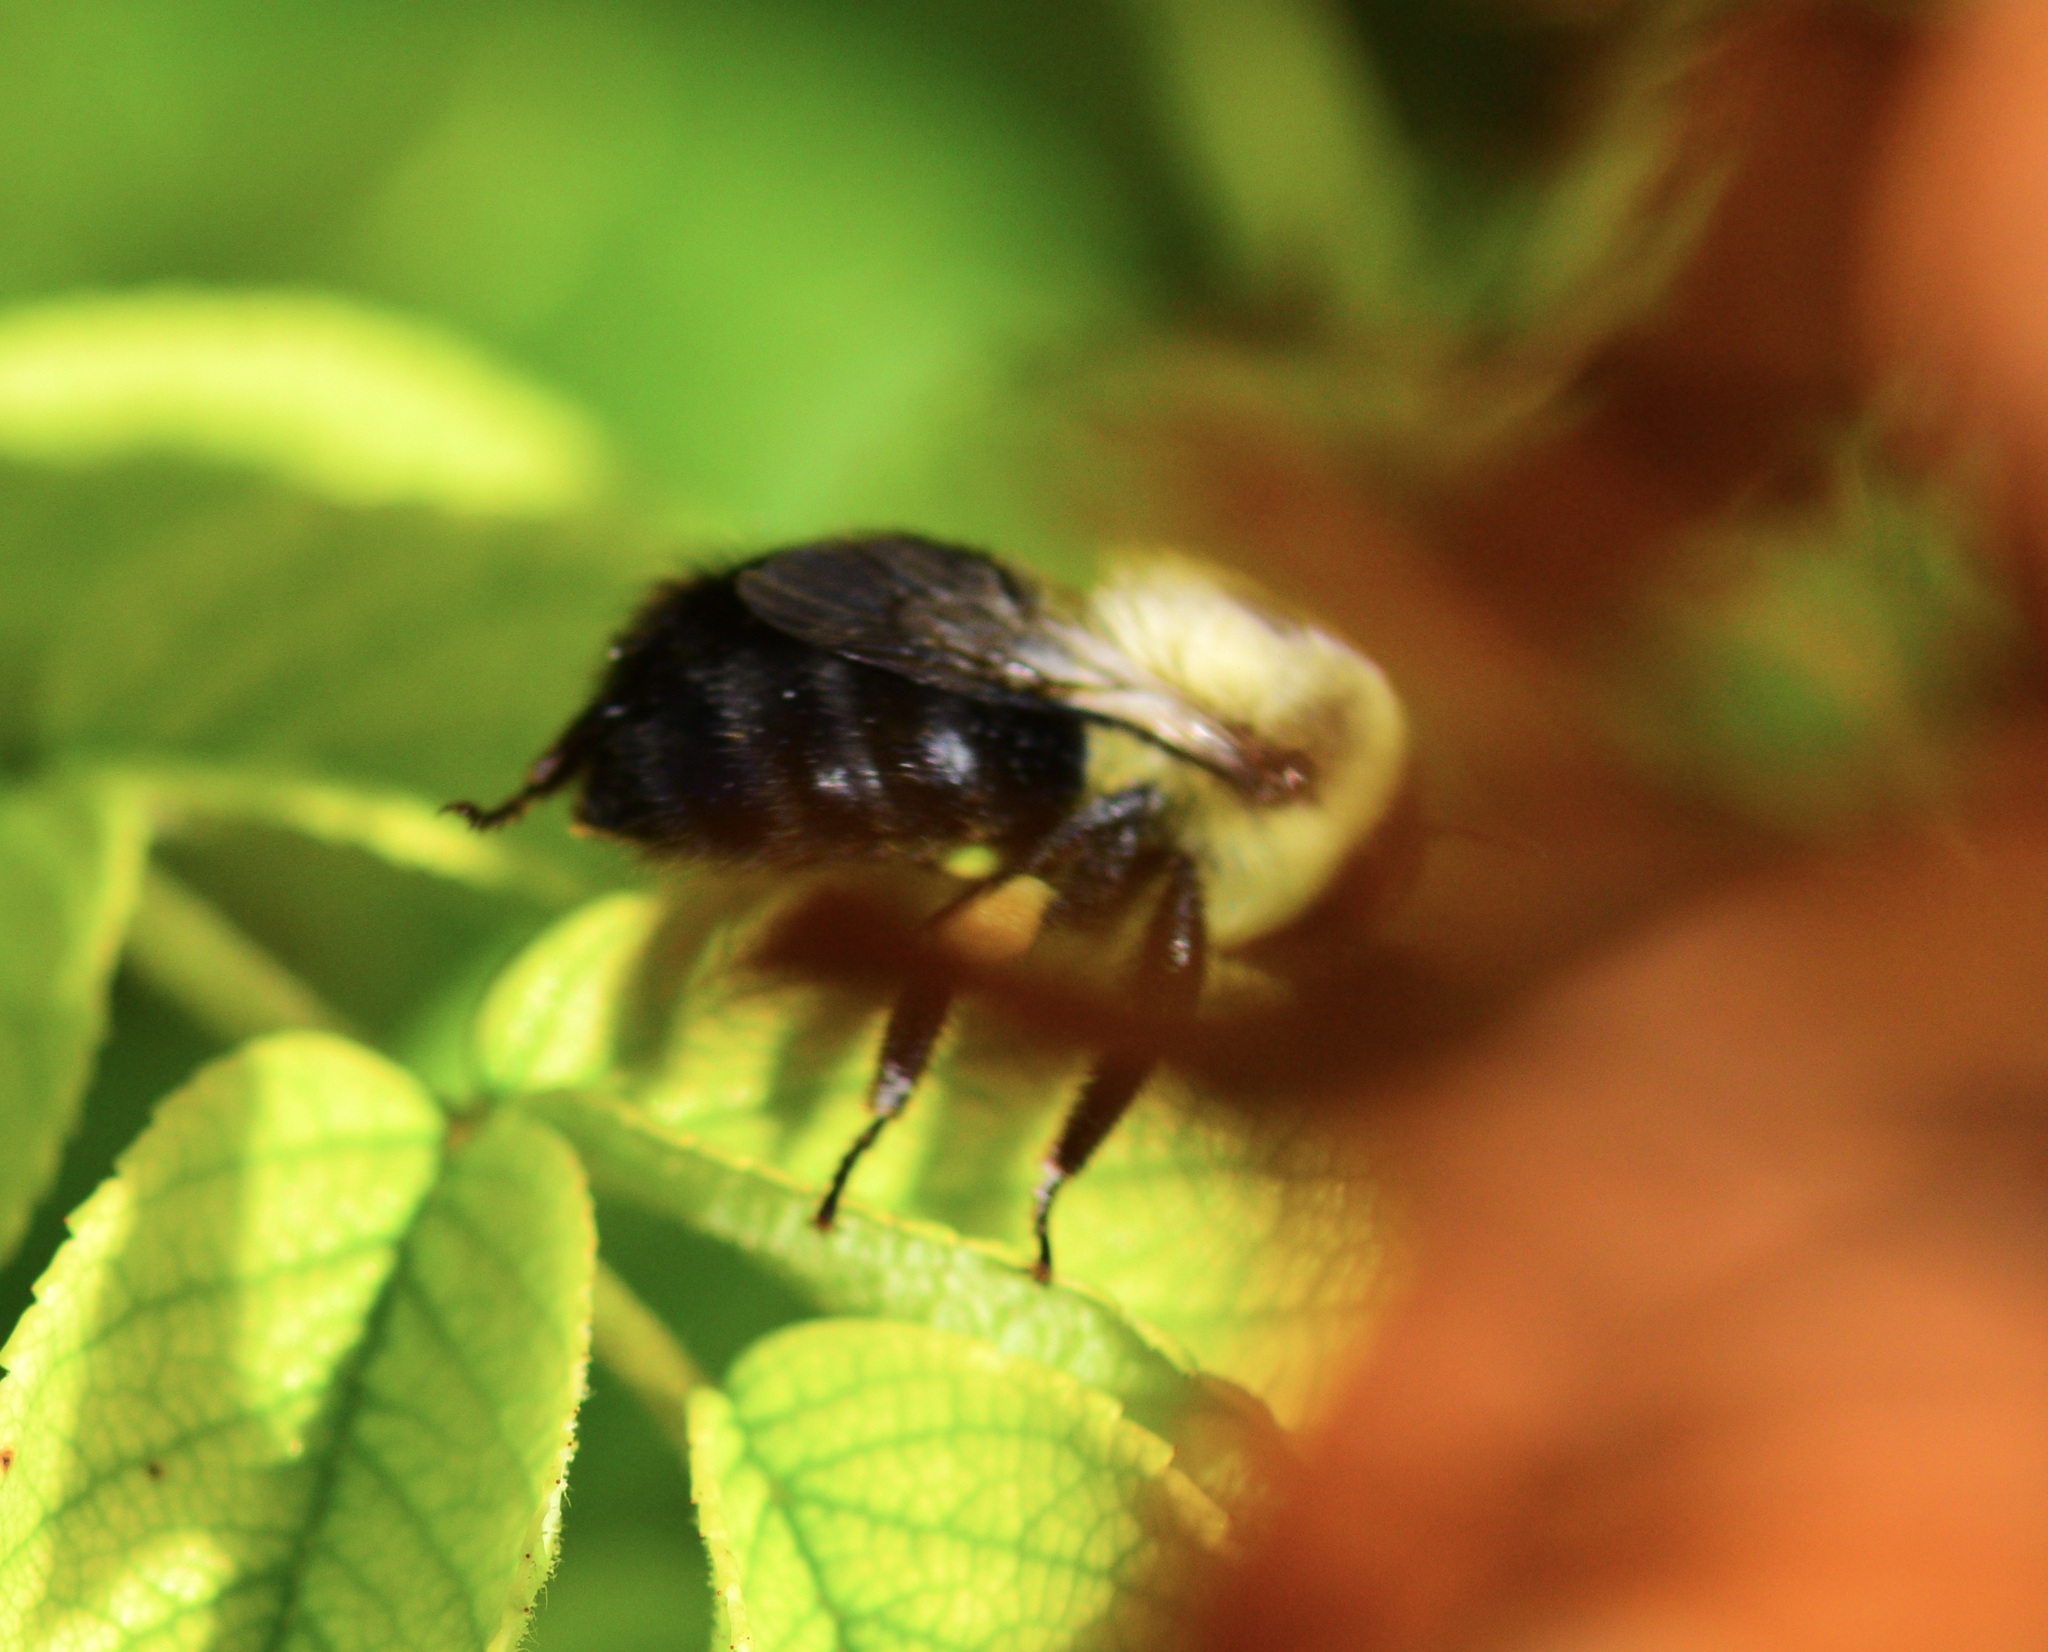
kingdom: Animalia
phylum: Arthropoda
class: Insecta
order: Hymenoptera
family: Apidae
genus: Bombus
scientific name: Bombus impatiens
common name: Common eastern bumble bee
